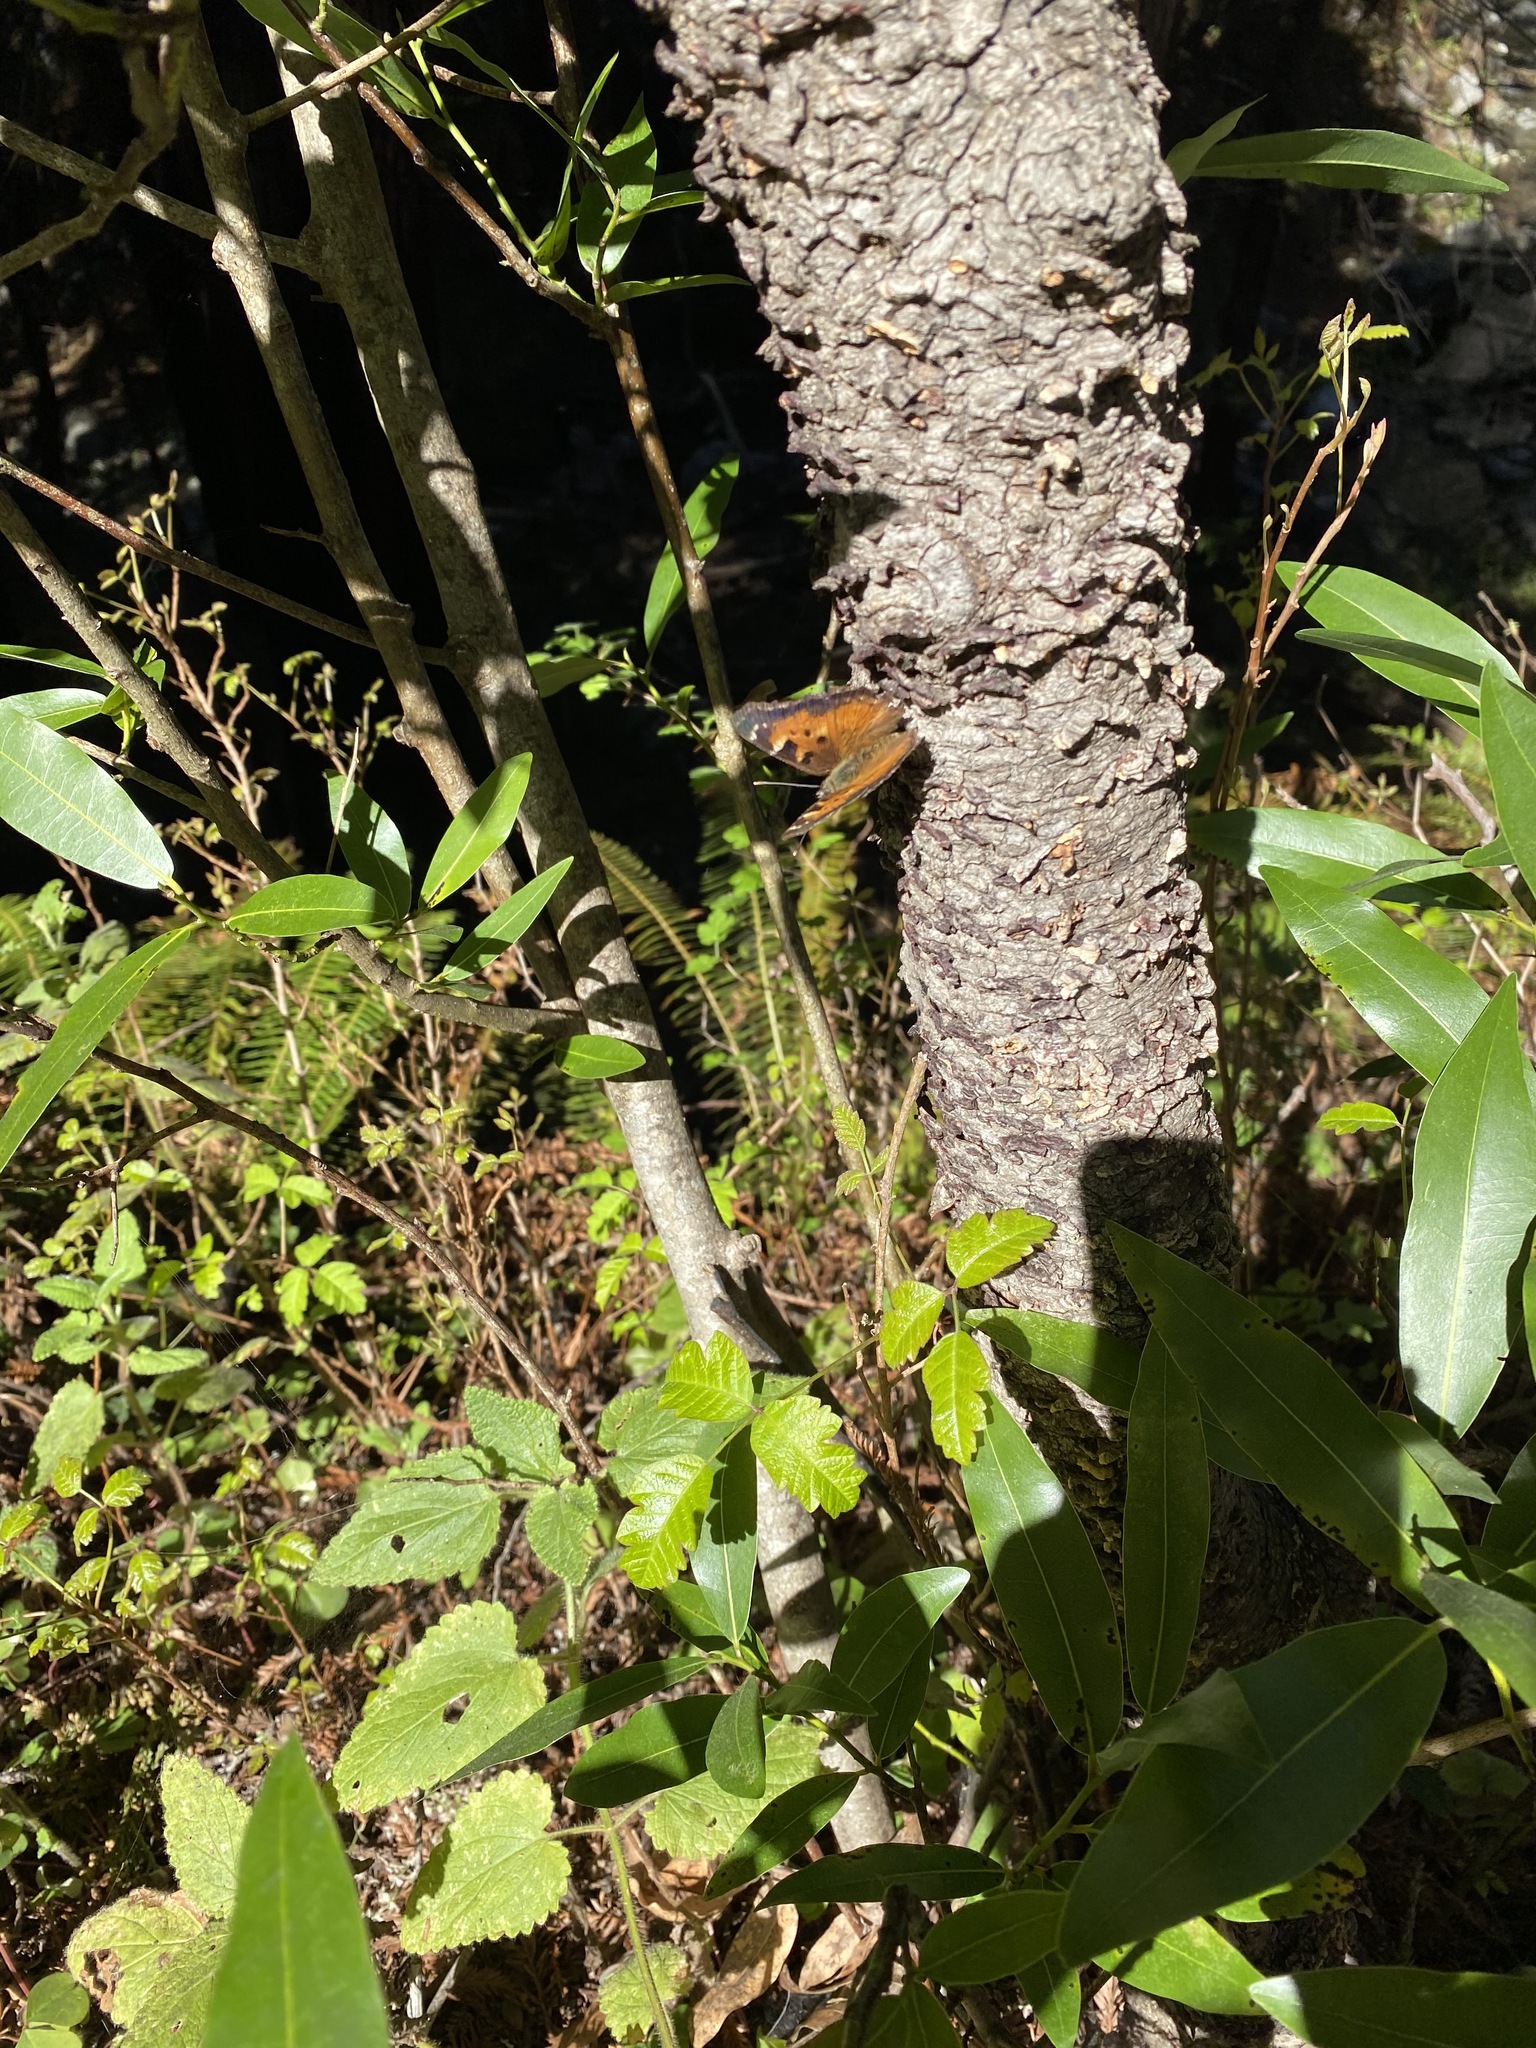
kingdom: Animalia
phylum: Arthropoda
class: Insecta
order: Lepidoptera
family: Nymphalidae
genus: Nymphalis
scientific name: Nymphalis californica
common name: California tortoiseshell
